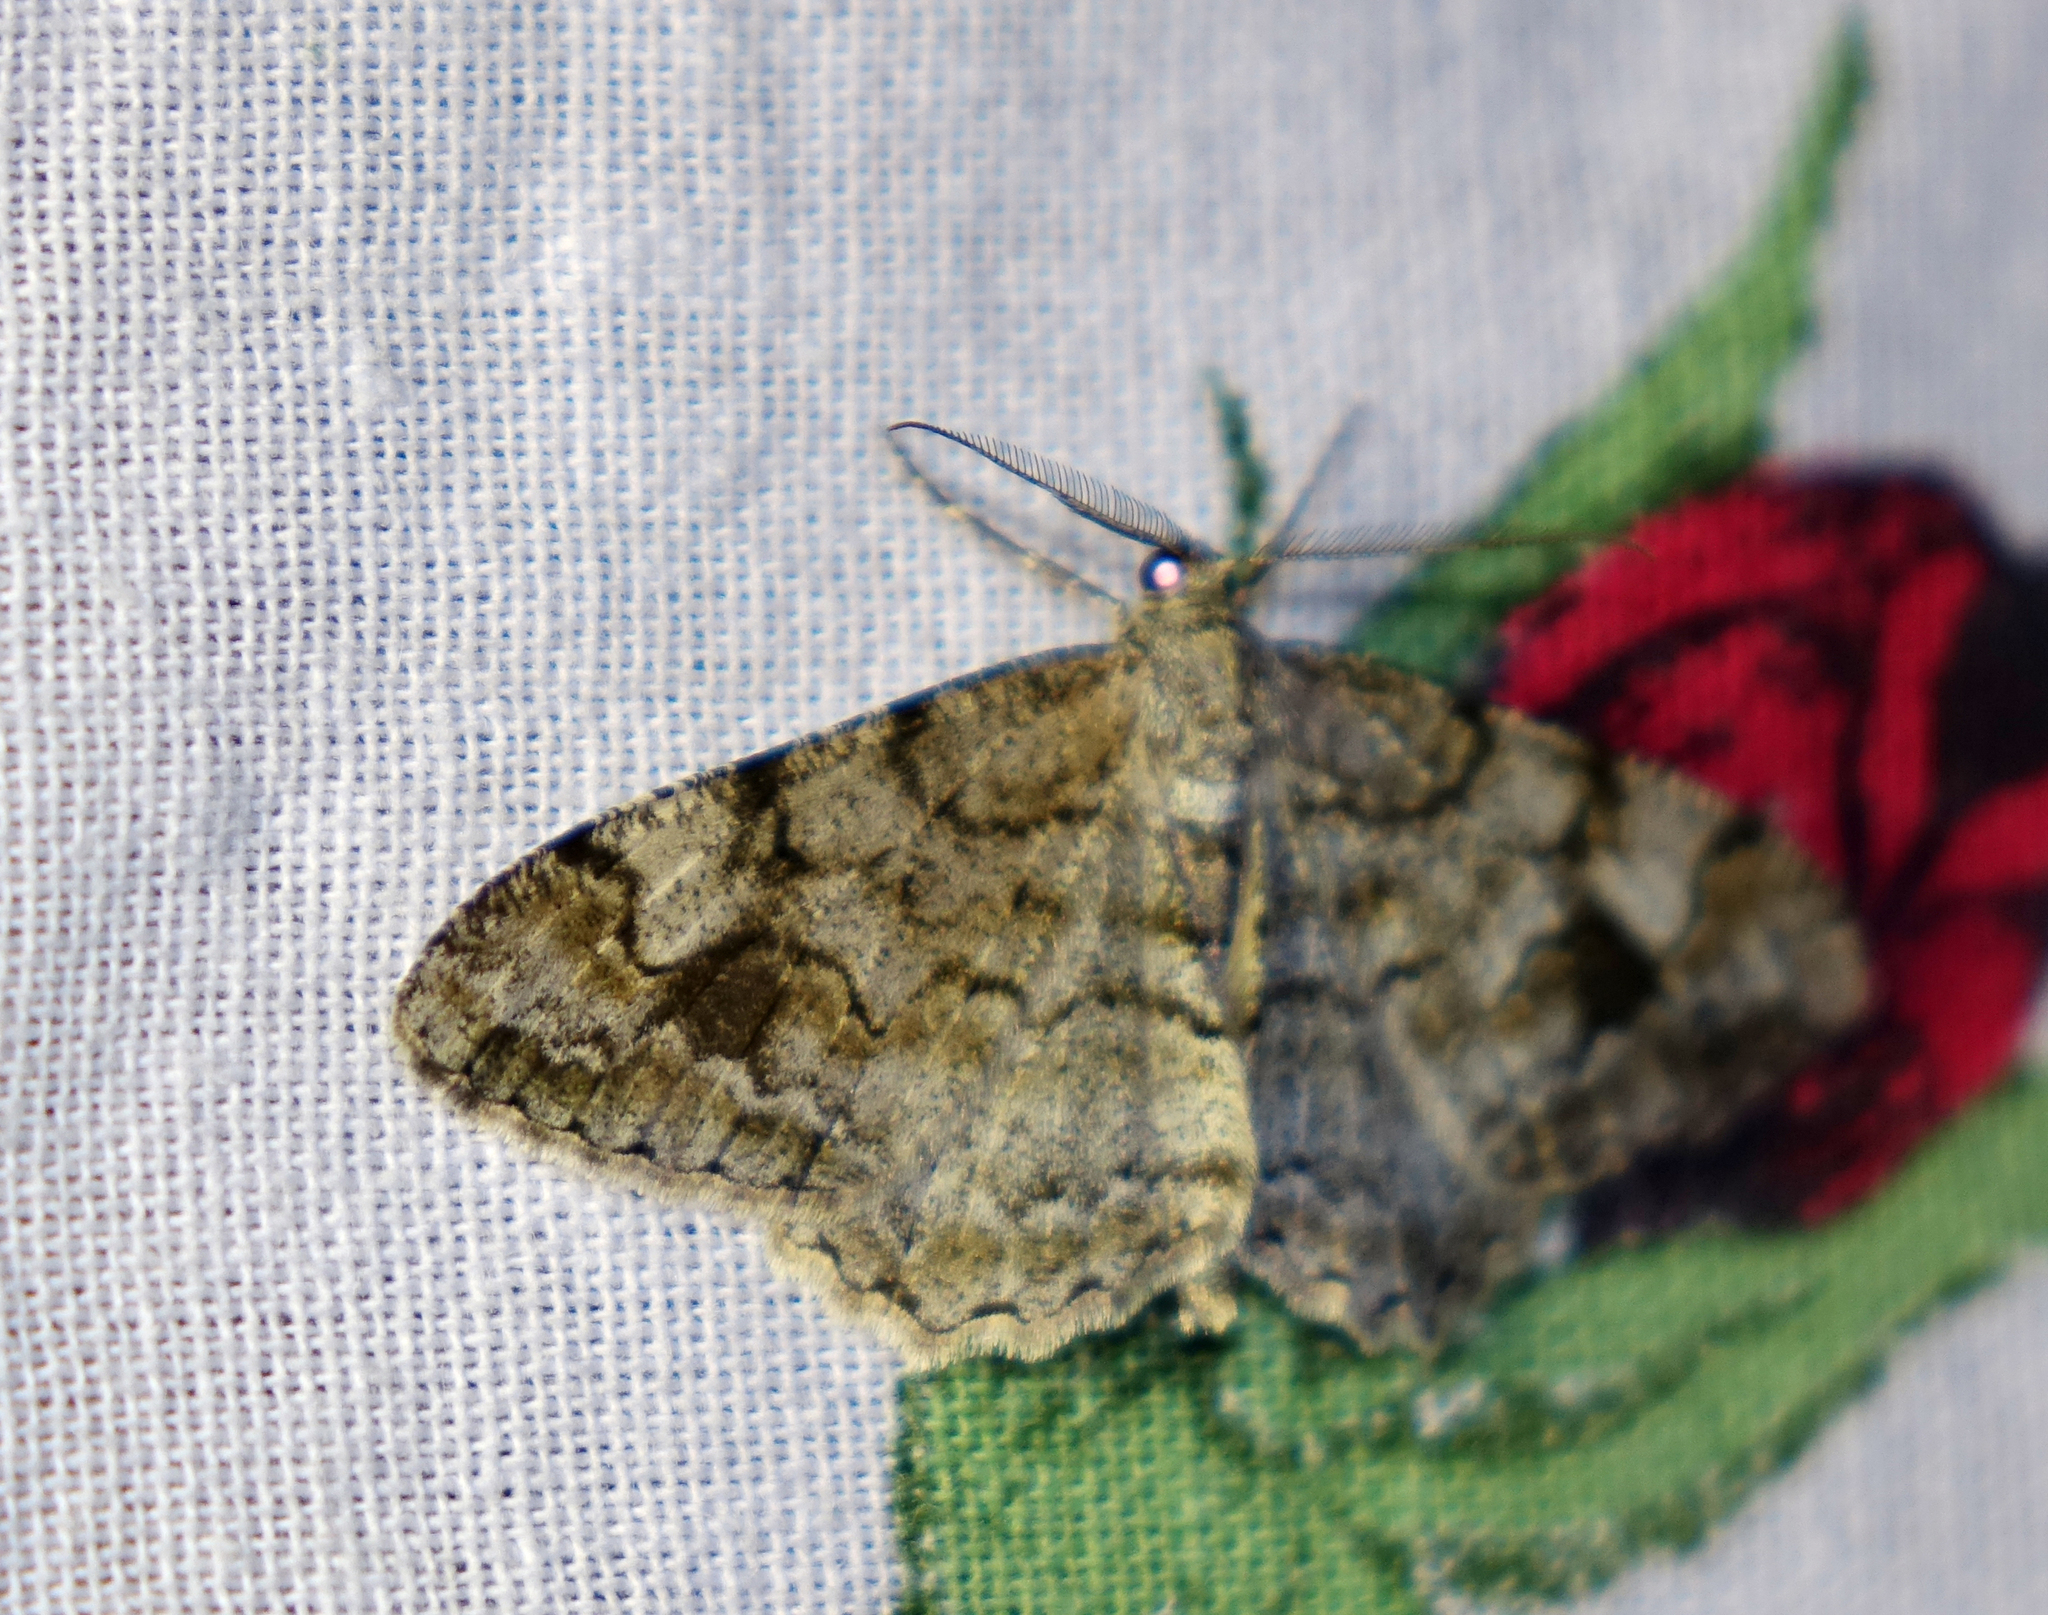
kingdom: Animalia
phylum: Arthropoda
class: Insecta
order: Lepidoptera
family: Geometridae
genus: Alcis
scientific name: Alcis repandata
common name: Mottled beauty
